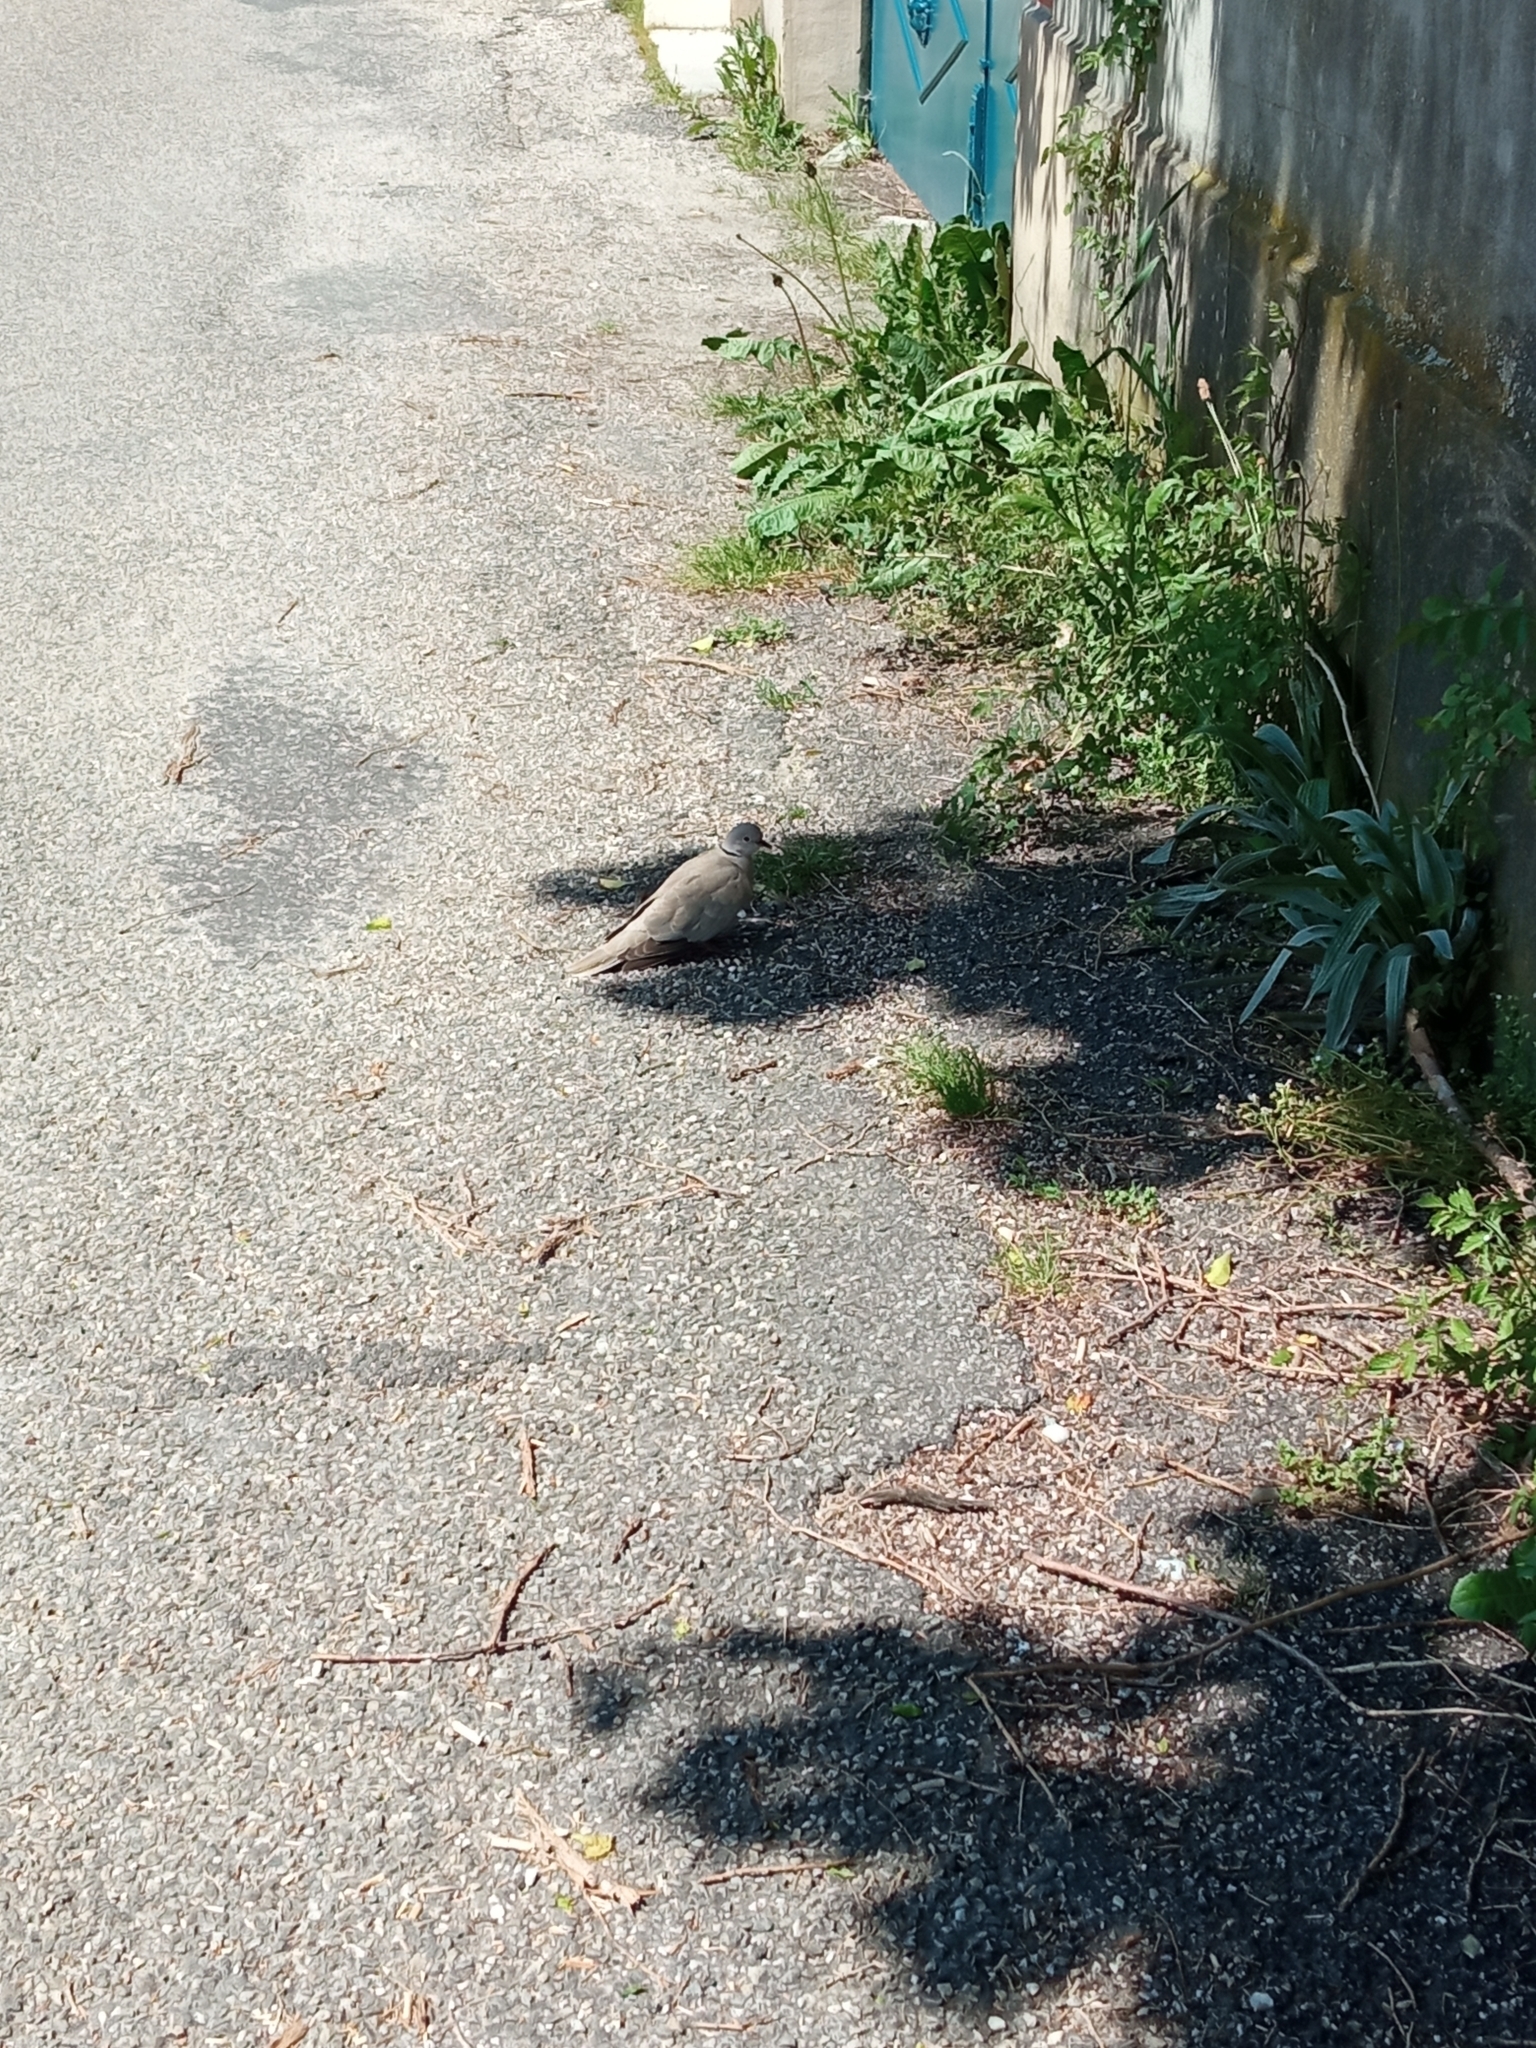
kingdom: Animalia
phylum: Chordata
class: Aves
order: Columbiformes
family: Columbidae
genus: Streptopelia
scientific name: Streptopelia decaocto
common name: Eurasian collared dove
